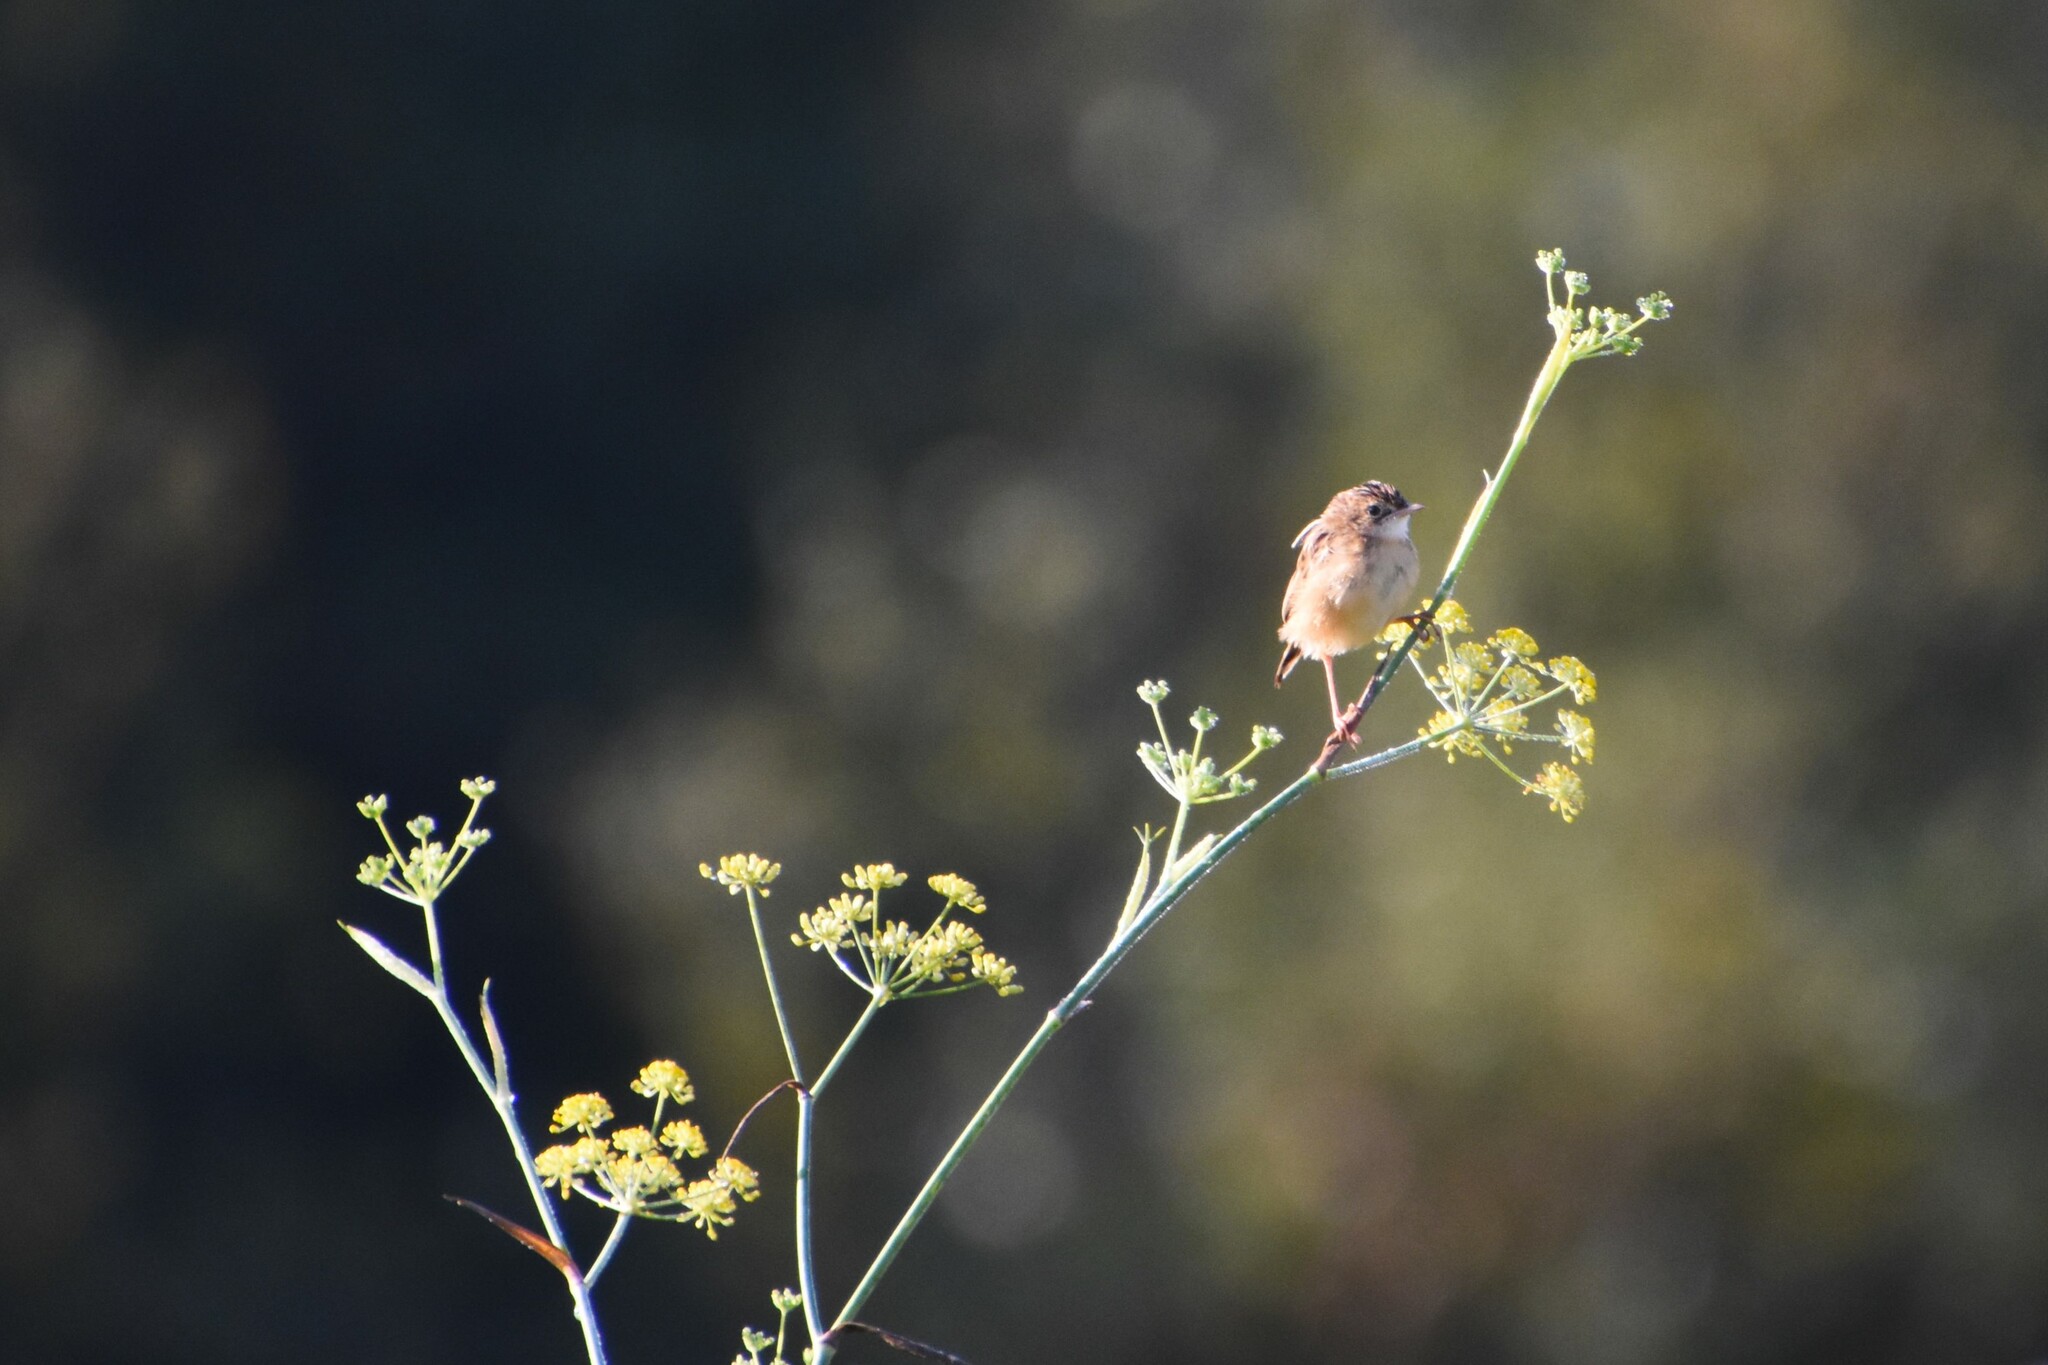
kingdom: Animalia
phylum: Chordata
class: Aves
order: Passeriformes
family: Cisticolidae
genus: Cisticola
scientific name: Cisticola juncidis
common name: Zitting cisticola
